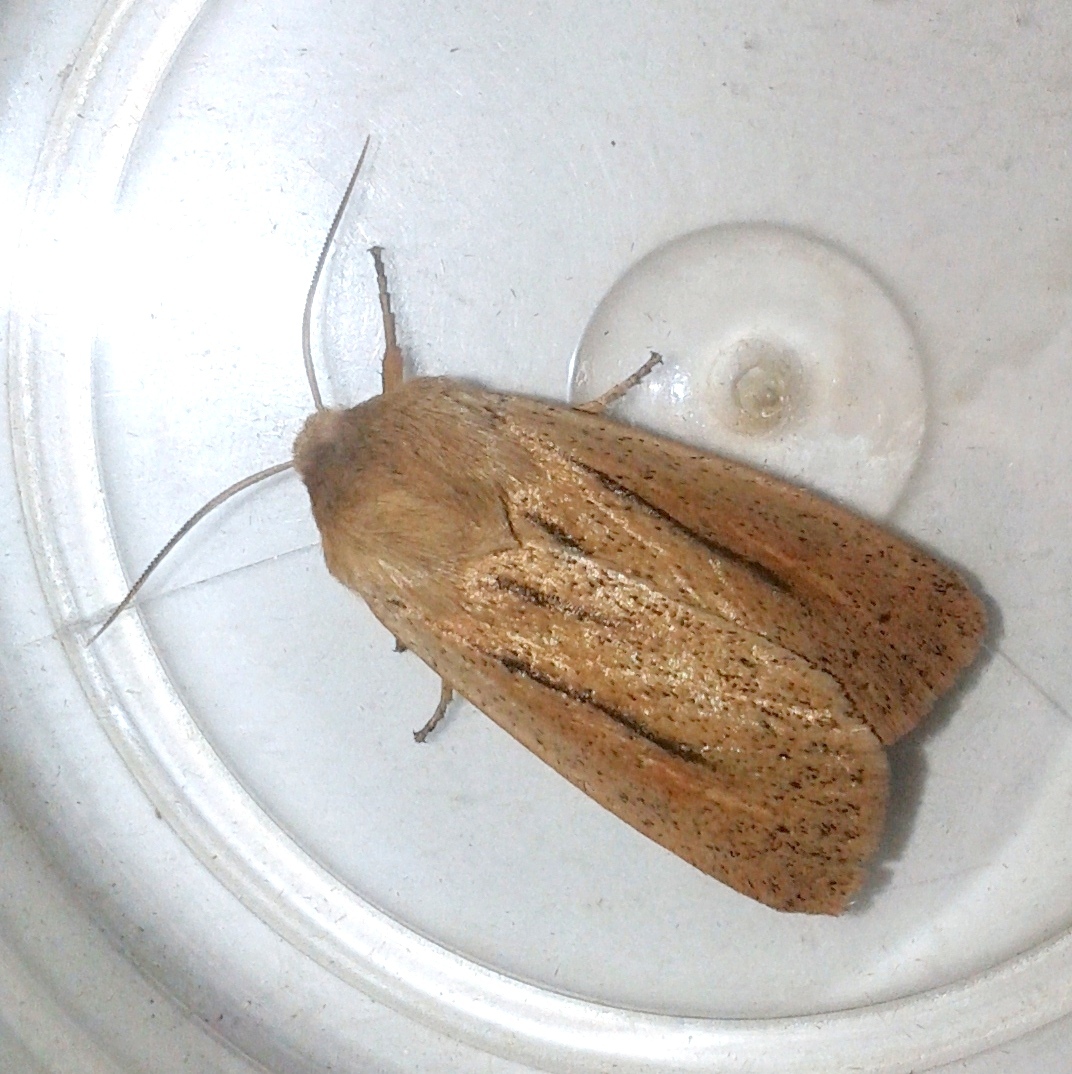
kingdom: Animalia
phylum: Arthropoda
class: Insecta
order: Lepidoptera
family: Noctuidae
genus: Tripseuxoa
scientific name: Tripseuxoa strigata
